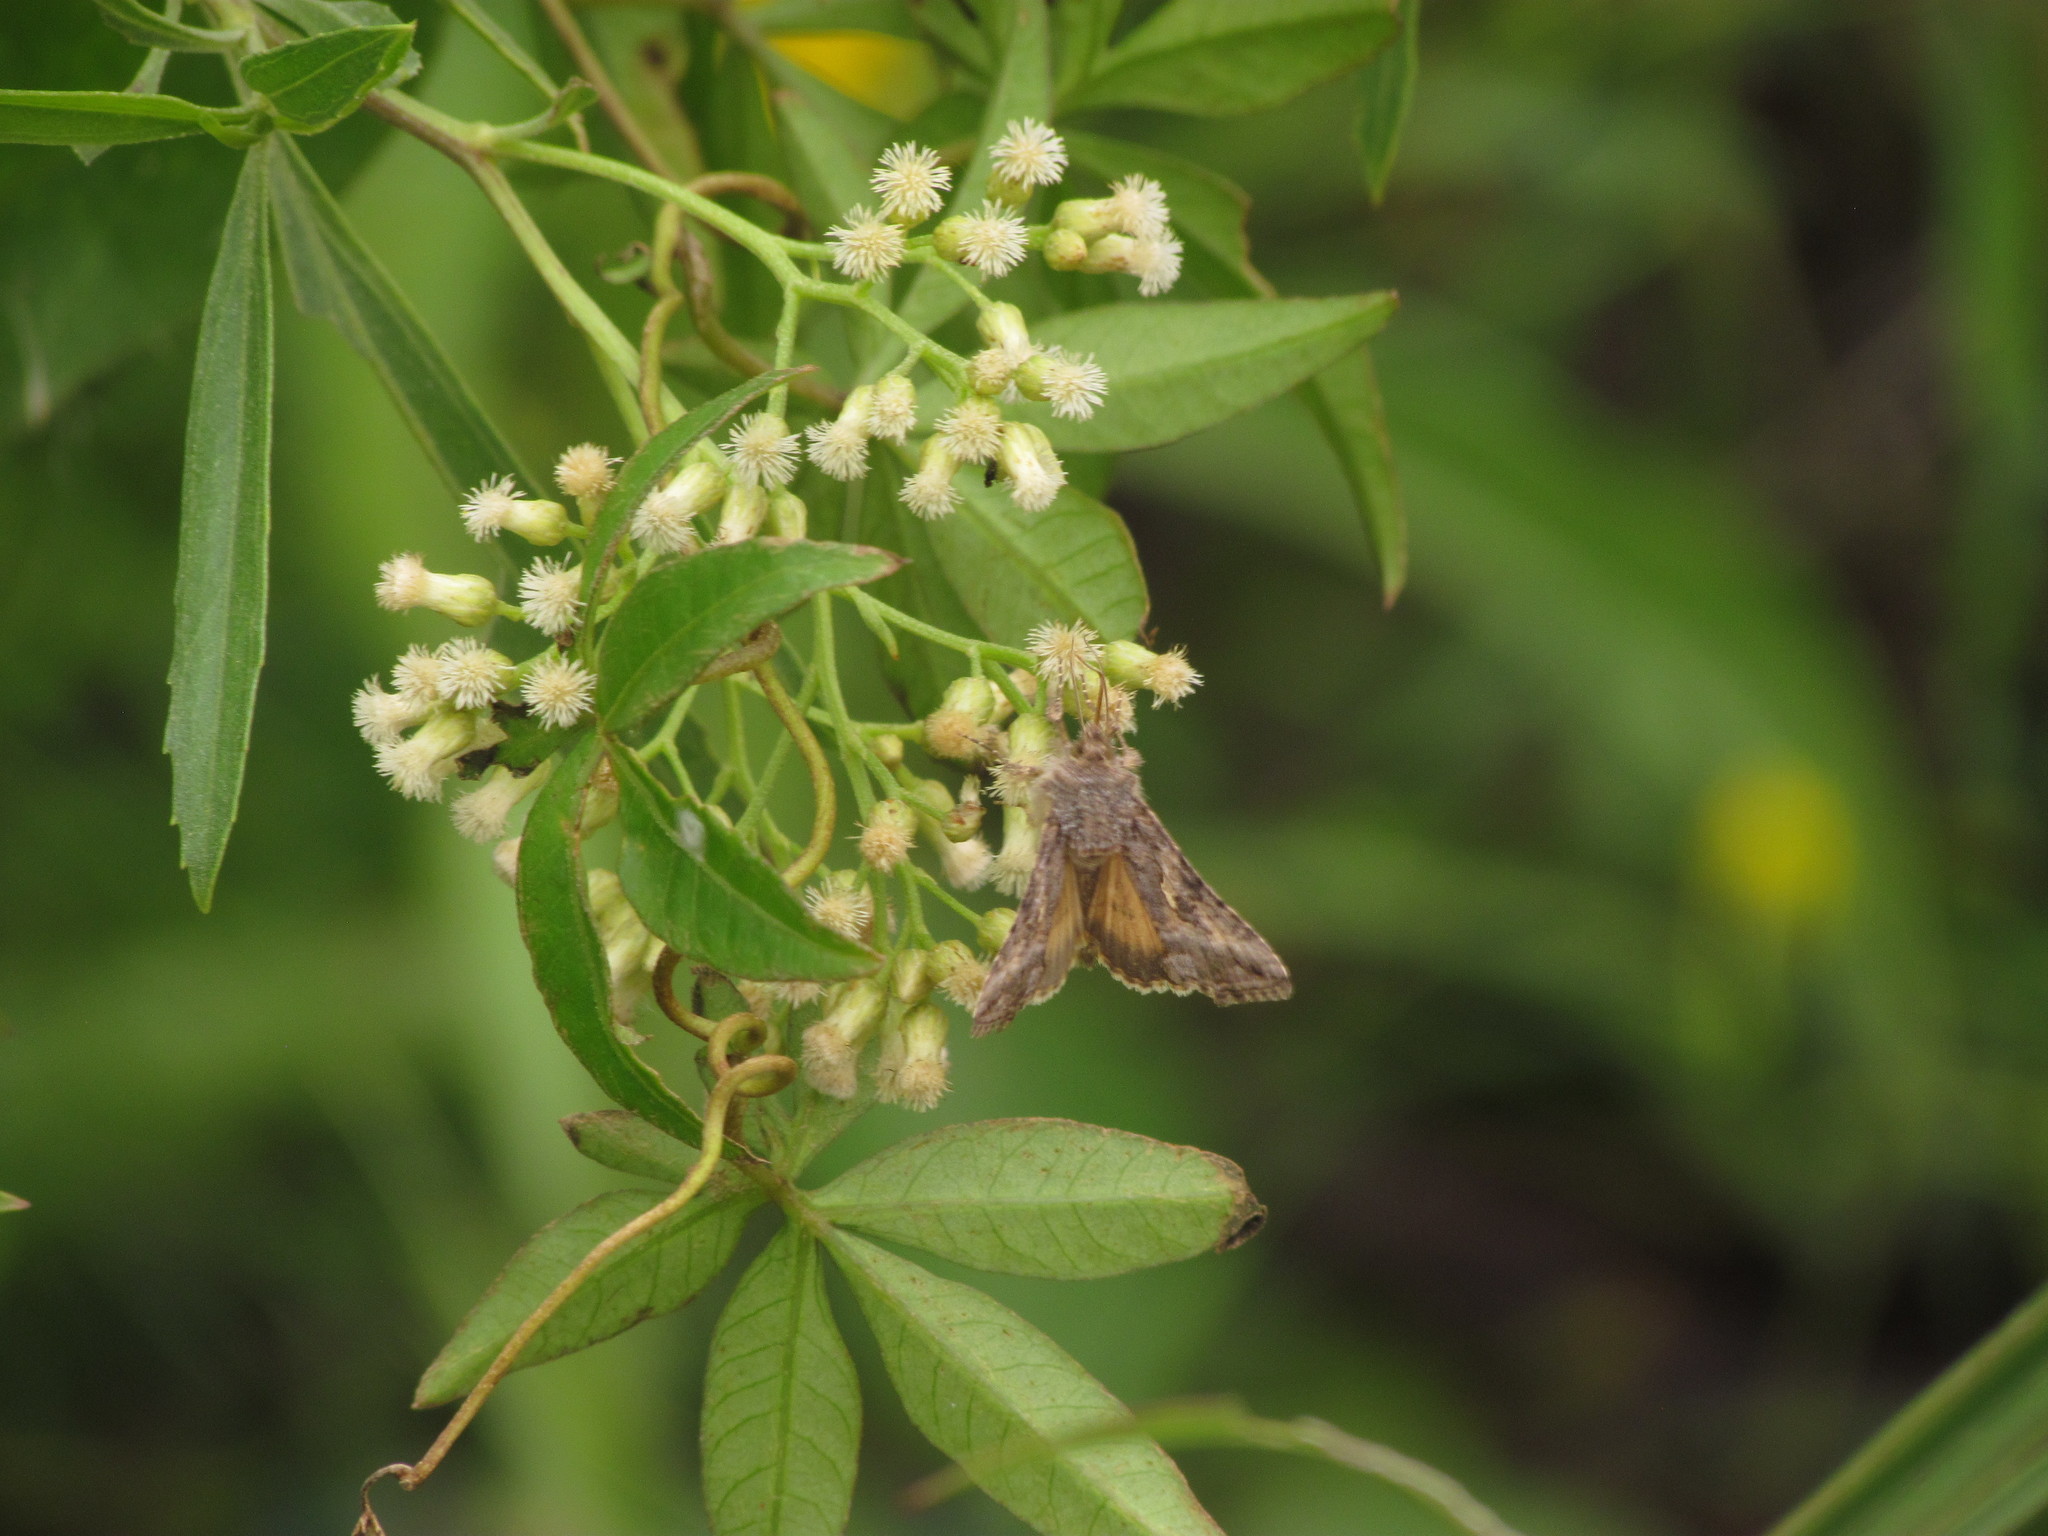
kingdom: Animalia
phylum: Arthropoda
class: Insecta
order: Lepidoptera
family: Noctuidae
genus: Rachiplusia
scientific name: Rachiplusia nu
